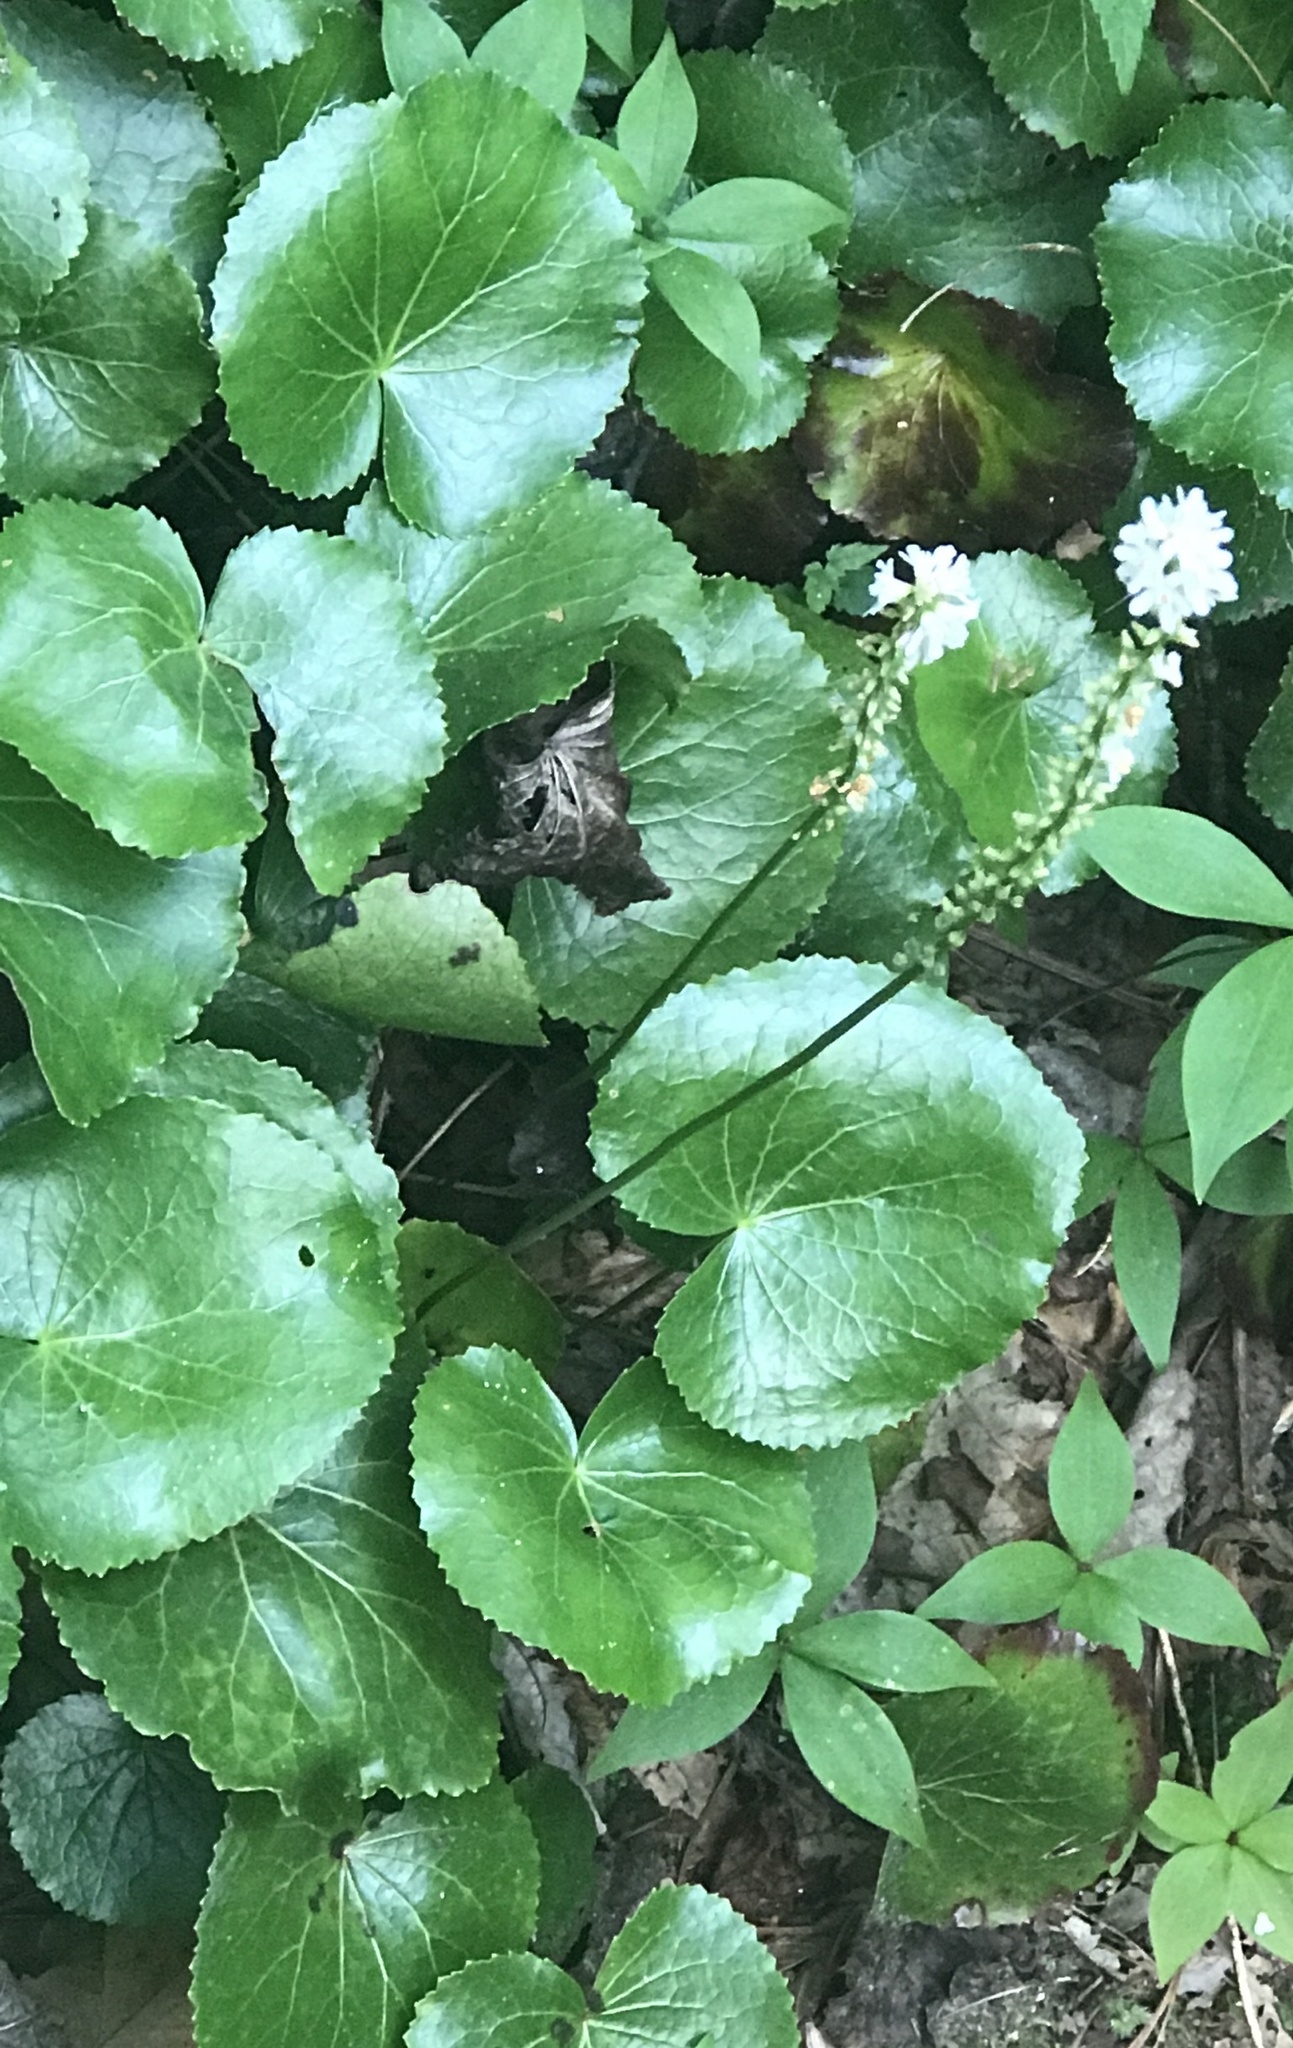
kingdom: Plantae
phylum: Tracheophyta
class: Magnoliopsida
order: Ericales
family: Diapensiaceae
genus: Galax
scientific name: Galax urceolata
